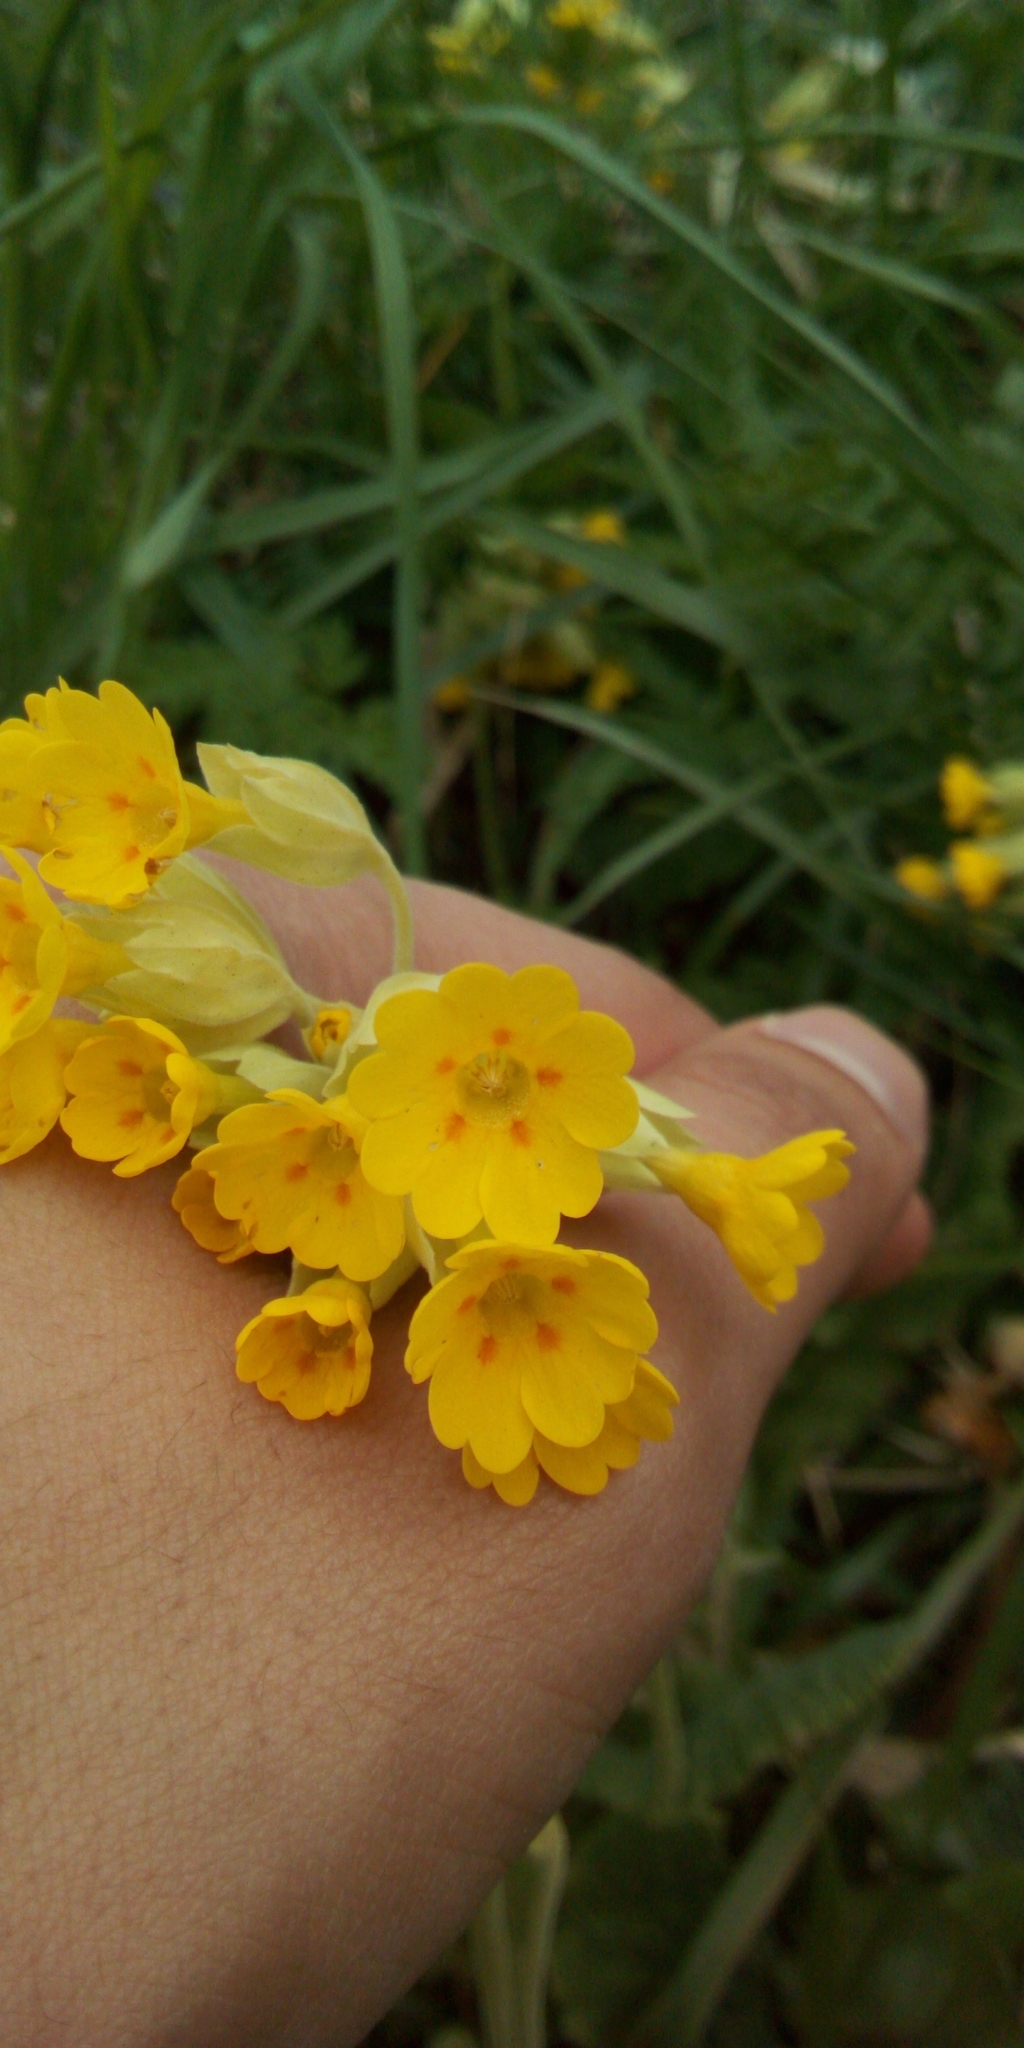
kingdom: Plantae
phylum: Tracheophyta
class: Magnoliopsida
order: Ericales
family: Primulaceae
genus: Primula
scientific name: Primula veris
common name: Cowslip
